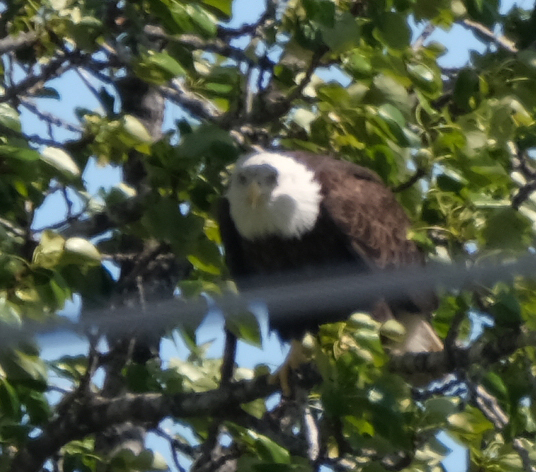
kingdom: Animalia
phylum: Chordata
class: Aves
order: Accipitriformes
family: Accipitridae
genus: Haliaeetus
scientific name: Haliaeetus leucocephalus
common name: Bald eagle
